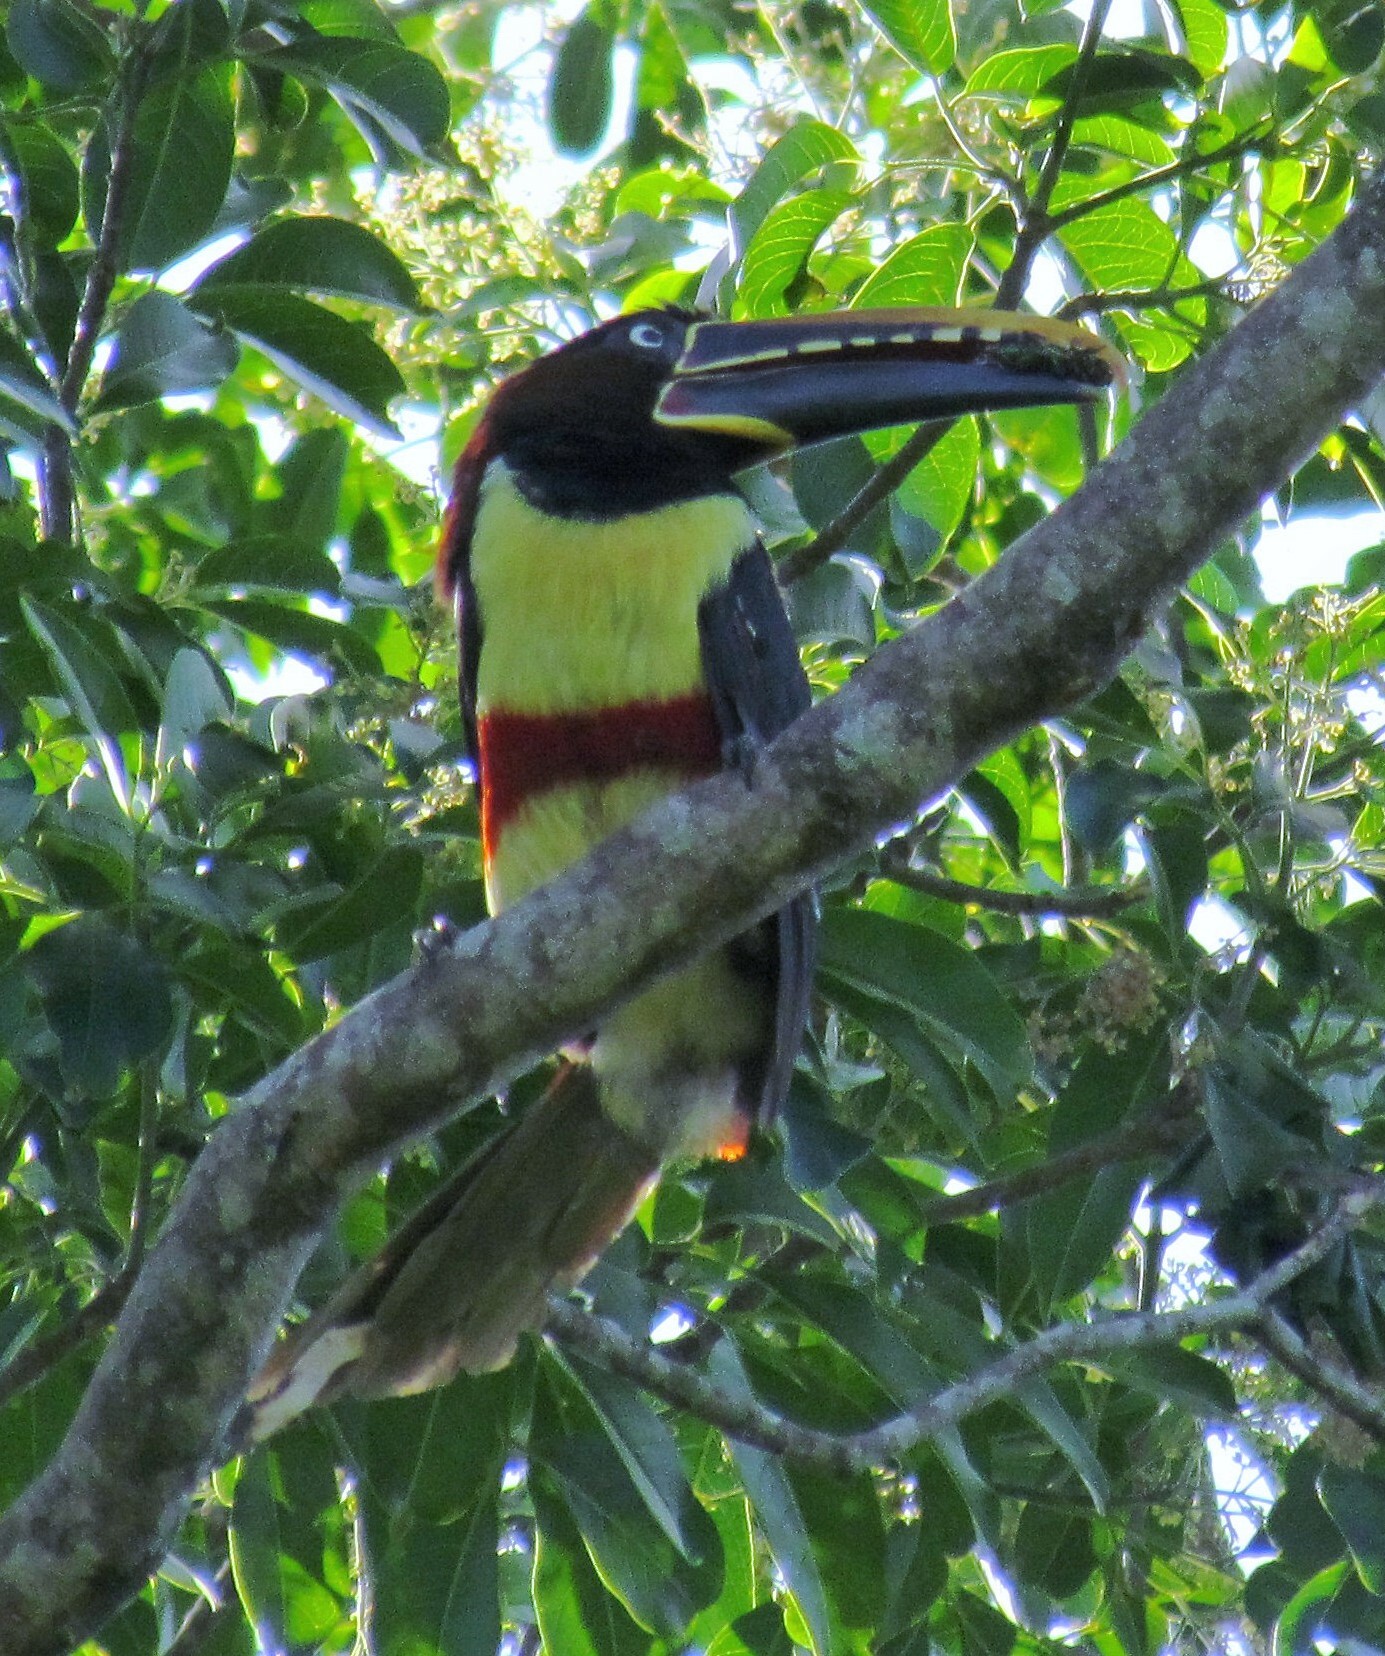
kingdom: Animalia
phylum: Chordata
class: Aves
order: Piciformes
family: Ramphastidae
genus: Pteroglossus
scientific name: Pteroglossus castanotis
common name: Chestnut-eared aracari
